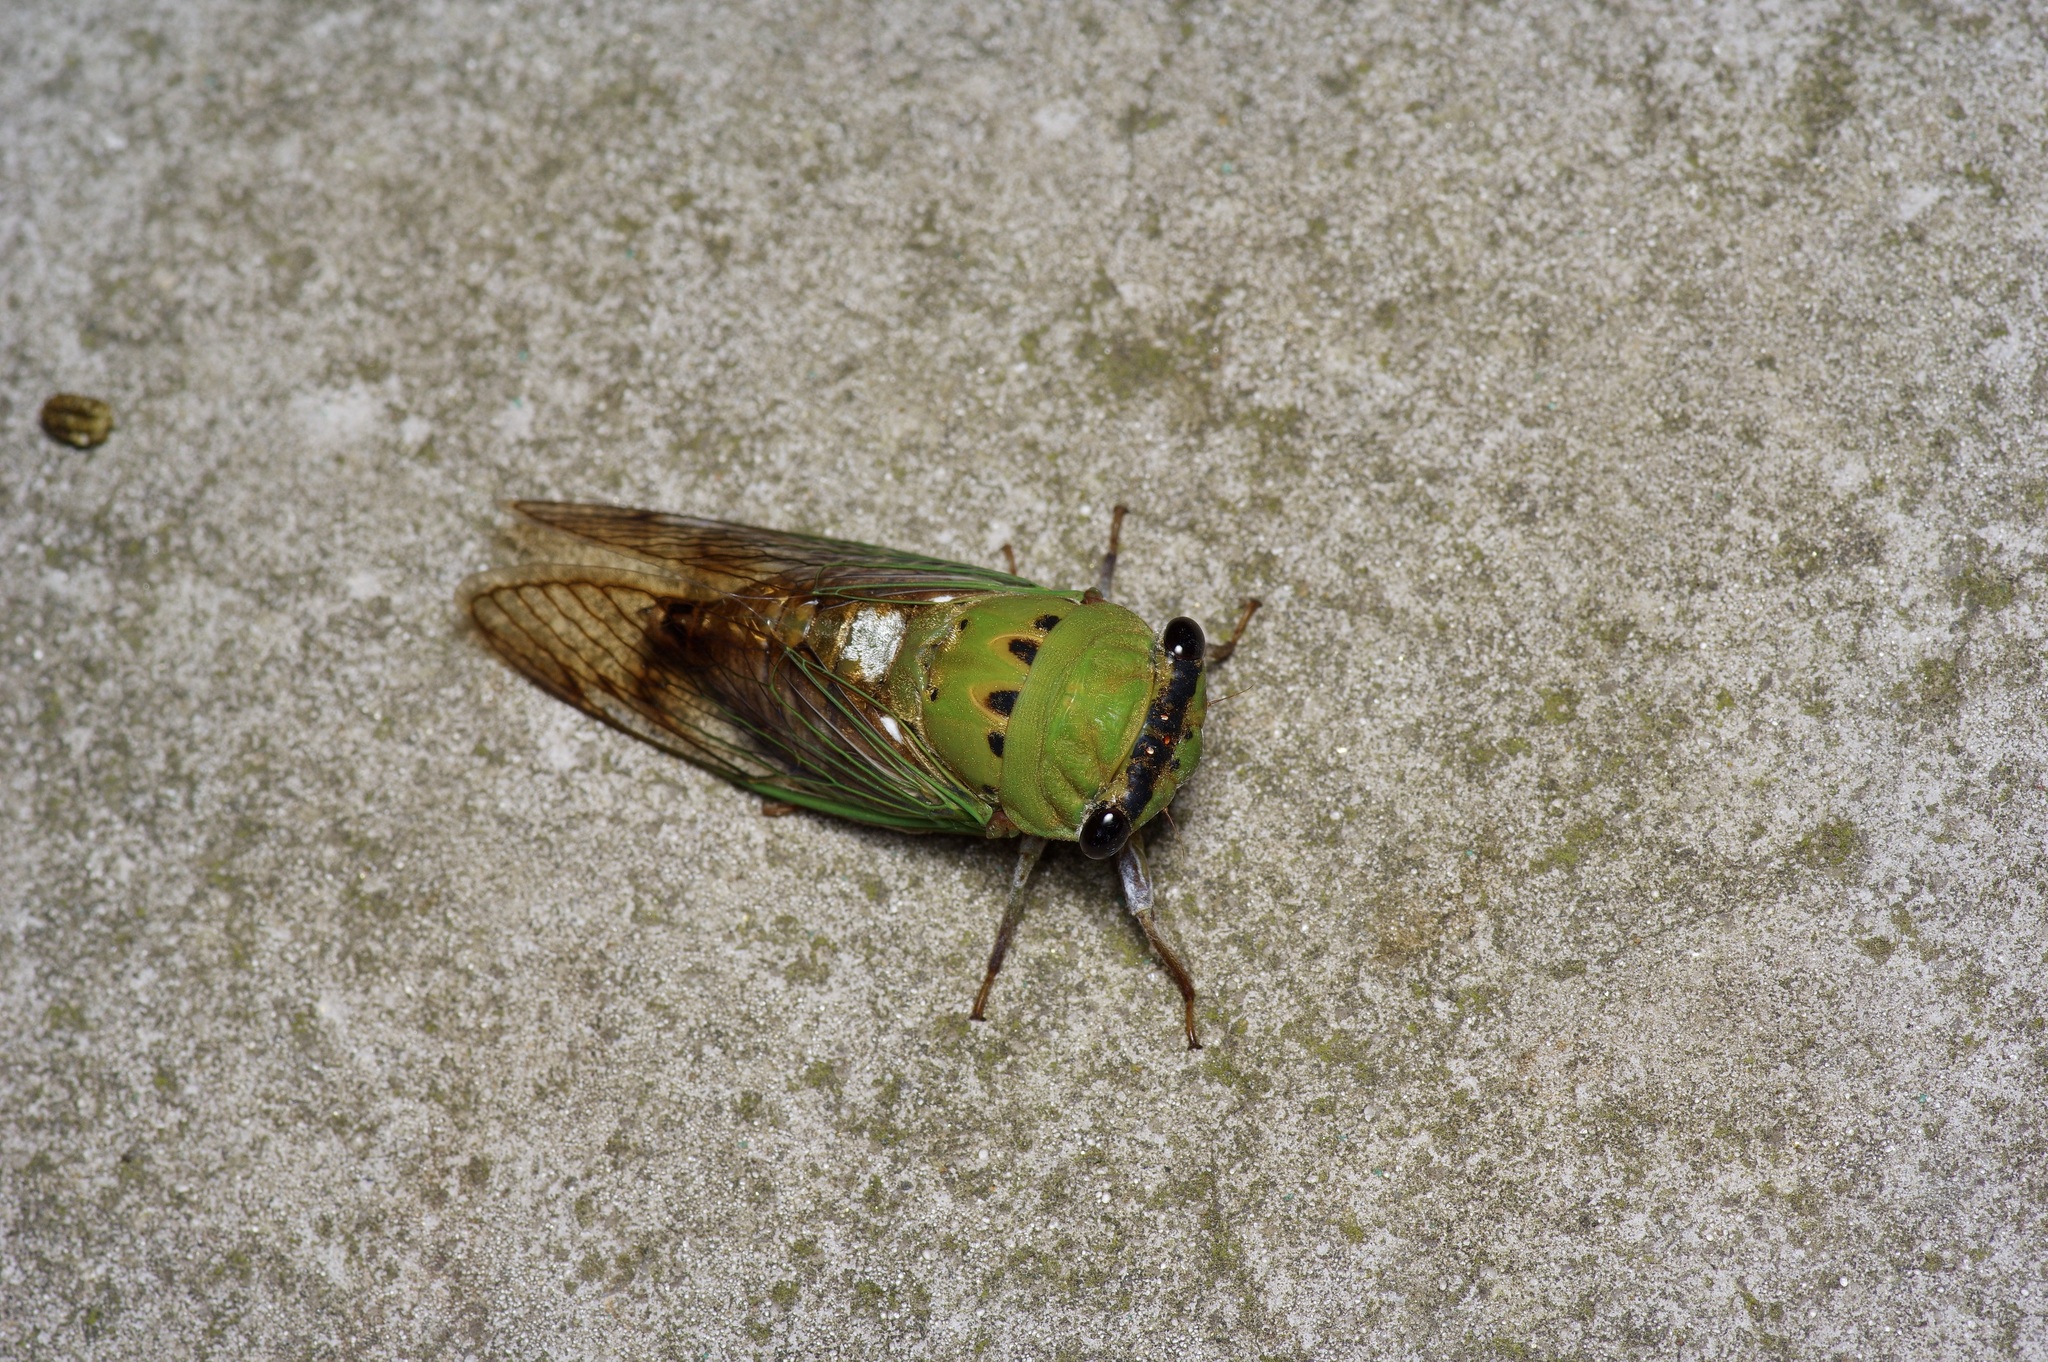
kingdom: Animalia
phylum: Arthropoda
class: Insecta
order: Hemiptera
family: Cicadidae
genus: Neotibicen
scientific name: Neotibicen superbus
